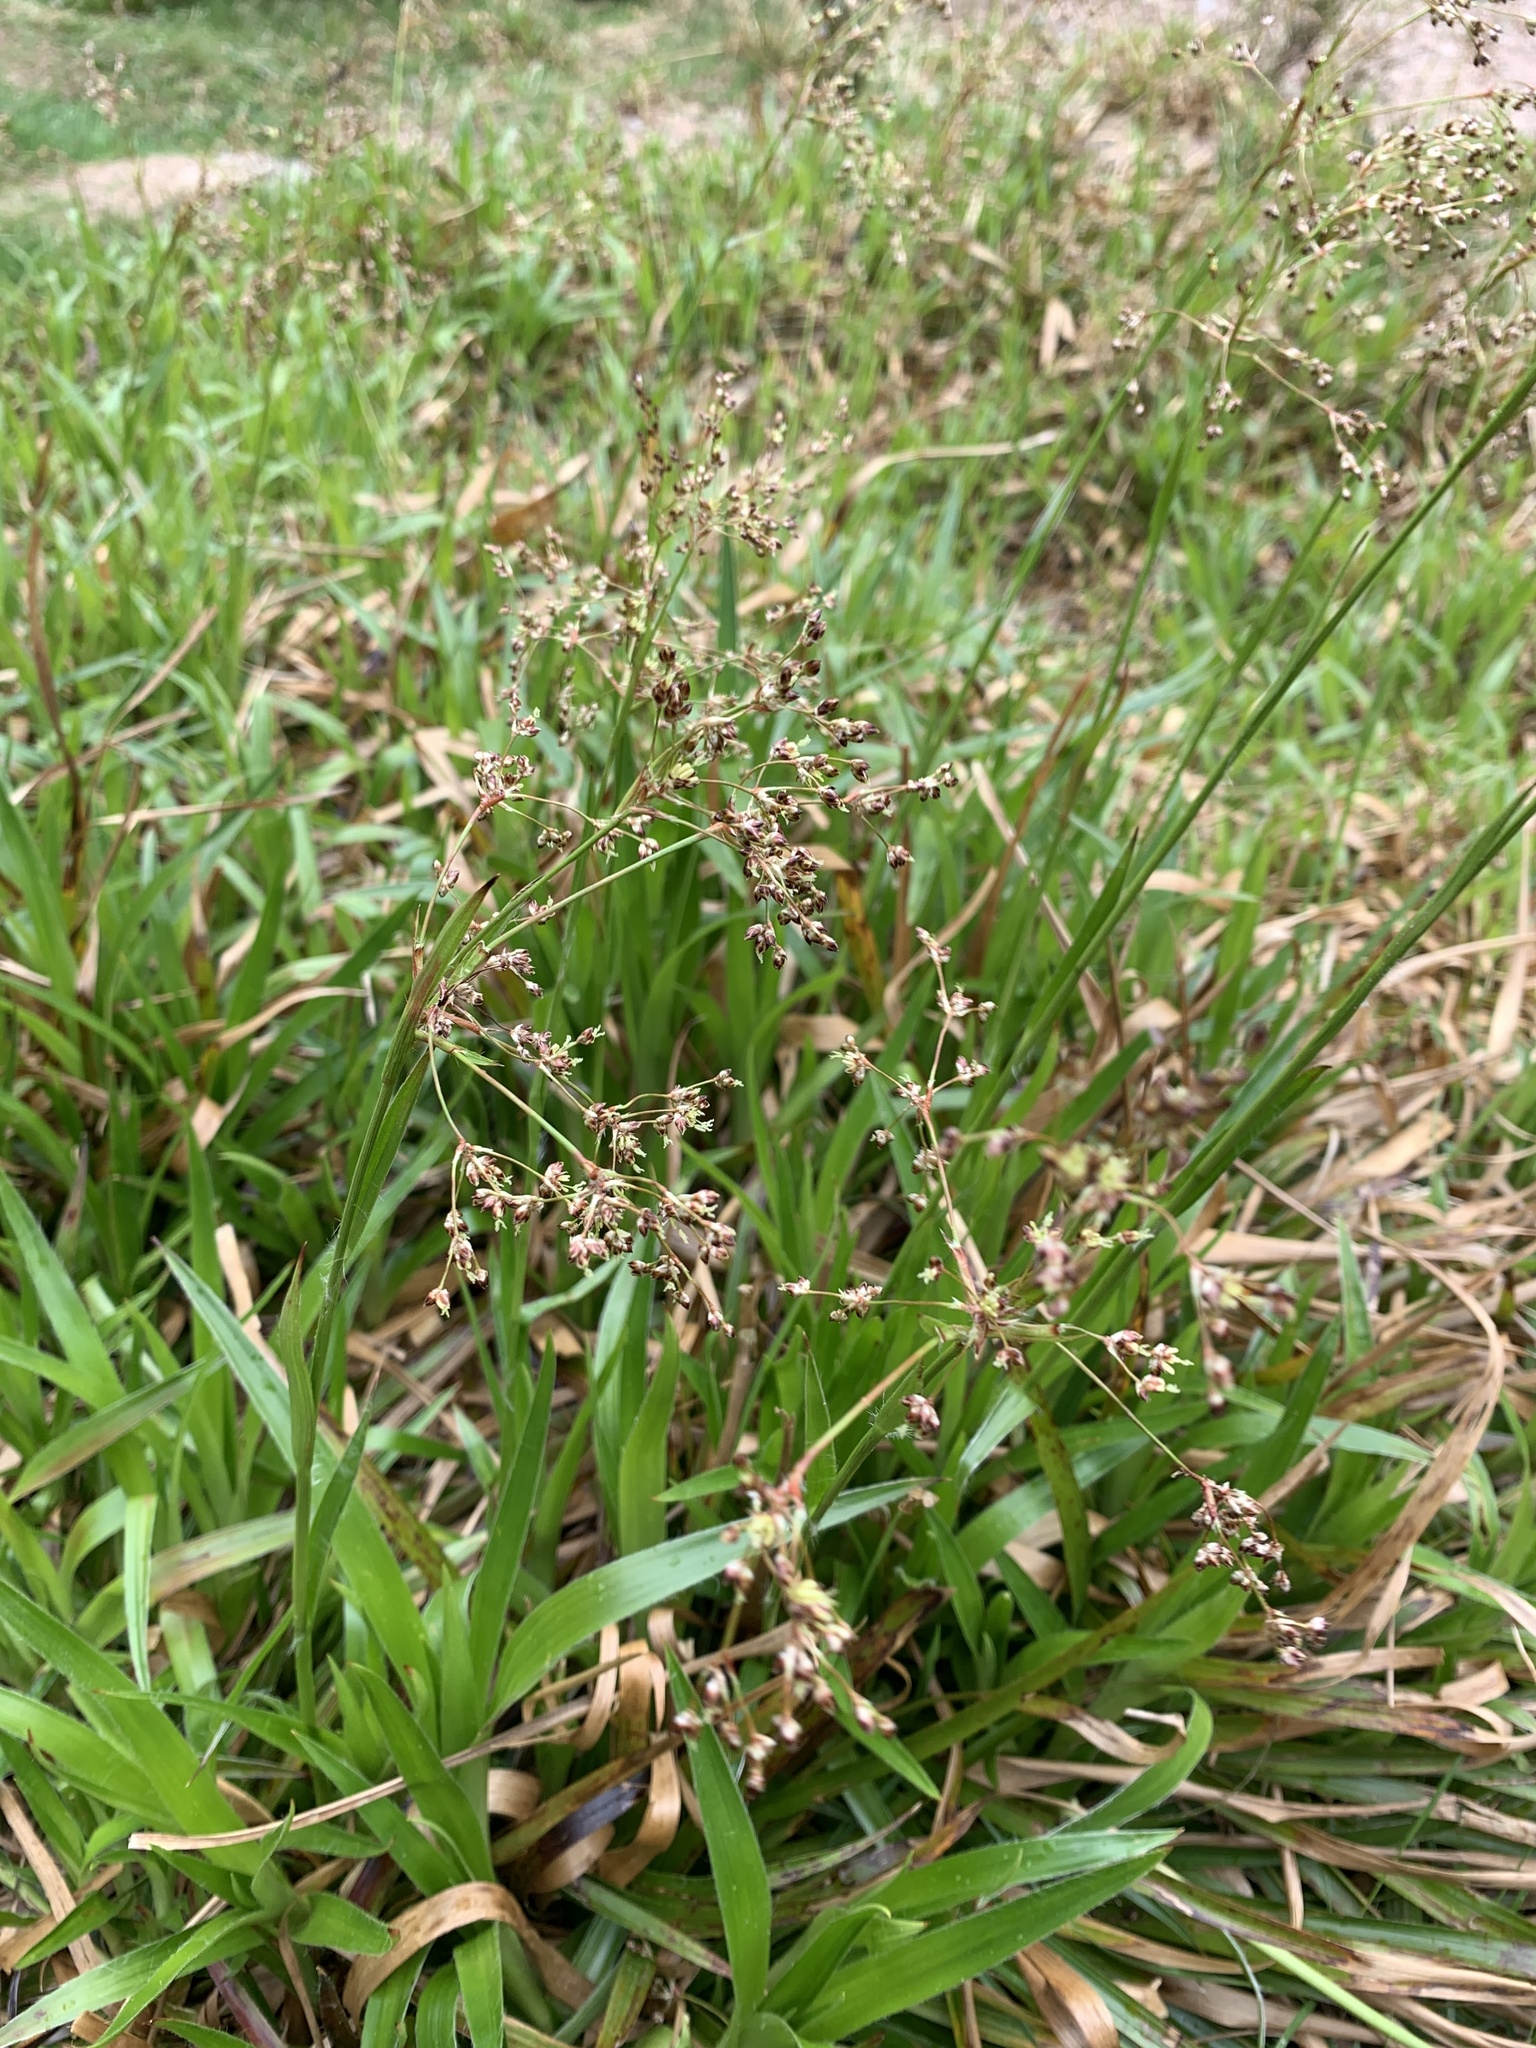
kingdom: Plantae
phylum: Tracheophyta
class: Liliopsida
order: Poales
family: Juncaceae
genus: Luzula
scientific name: Luzula sylvatica
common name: Great wood-rush
